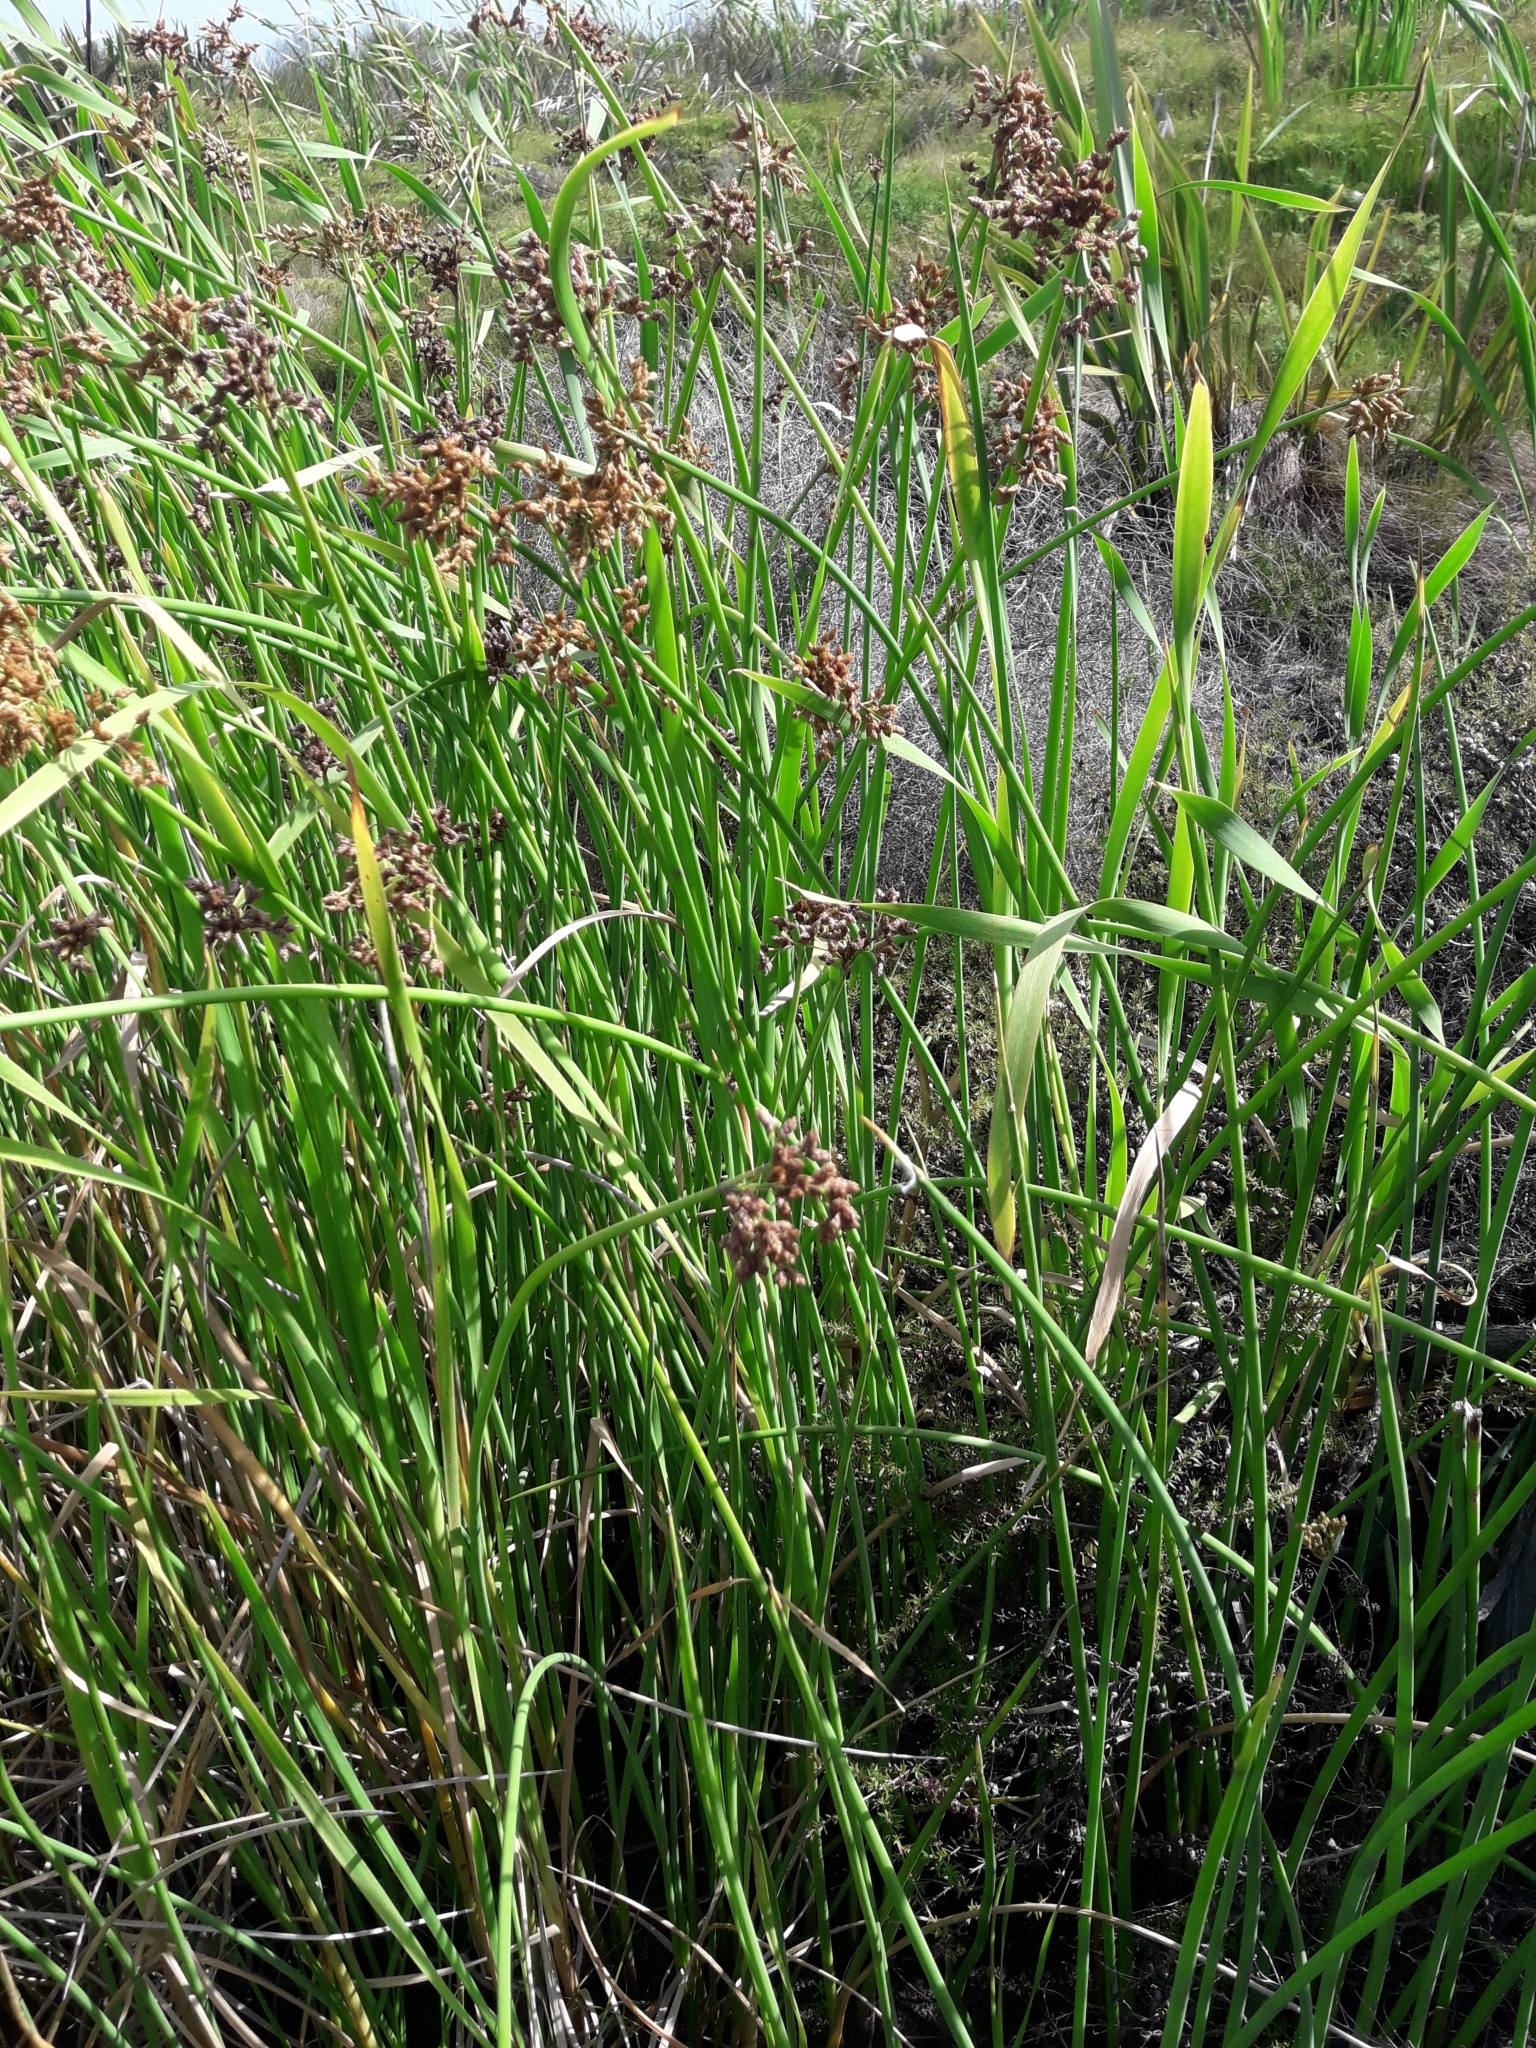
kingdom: Plantae
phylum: Tracheophyta
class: Liliopsida
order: Poales
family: Cyperaceae
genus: Schoenoplectus
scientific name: Schoenoplectus tabernaemontani
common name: Grey club-rush
